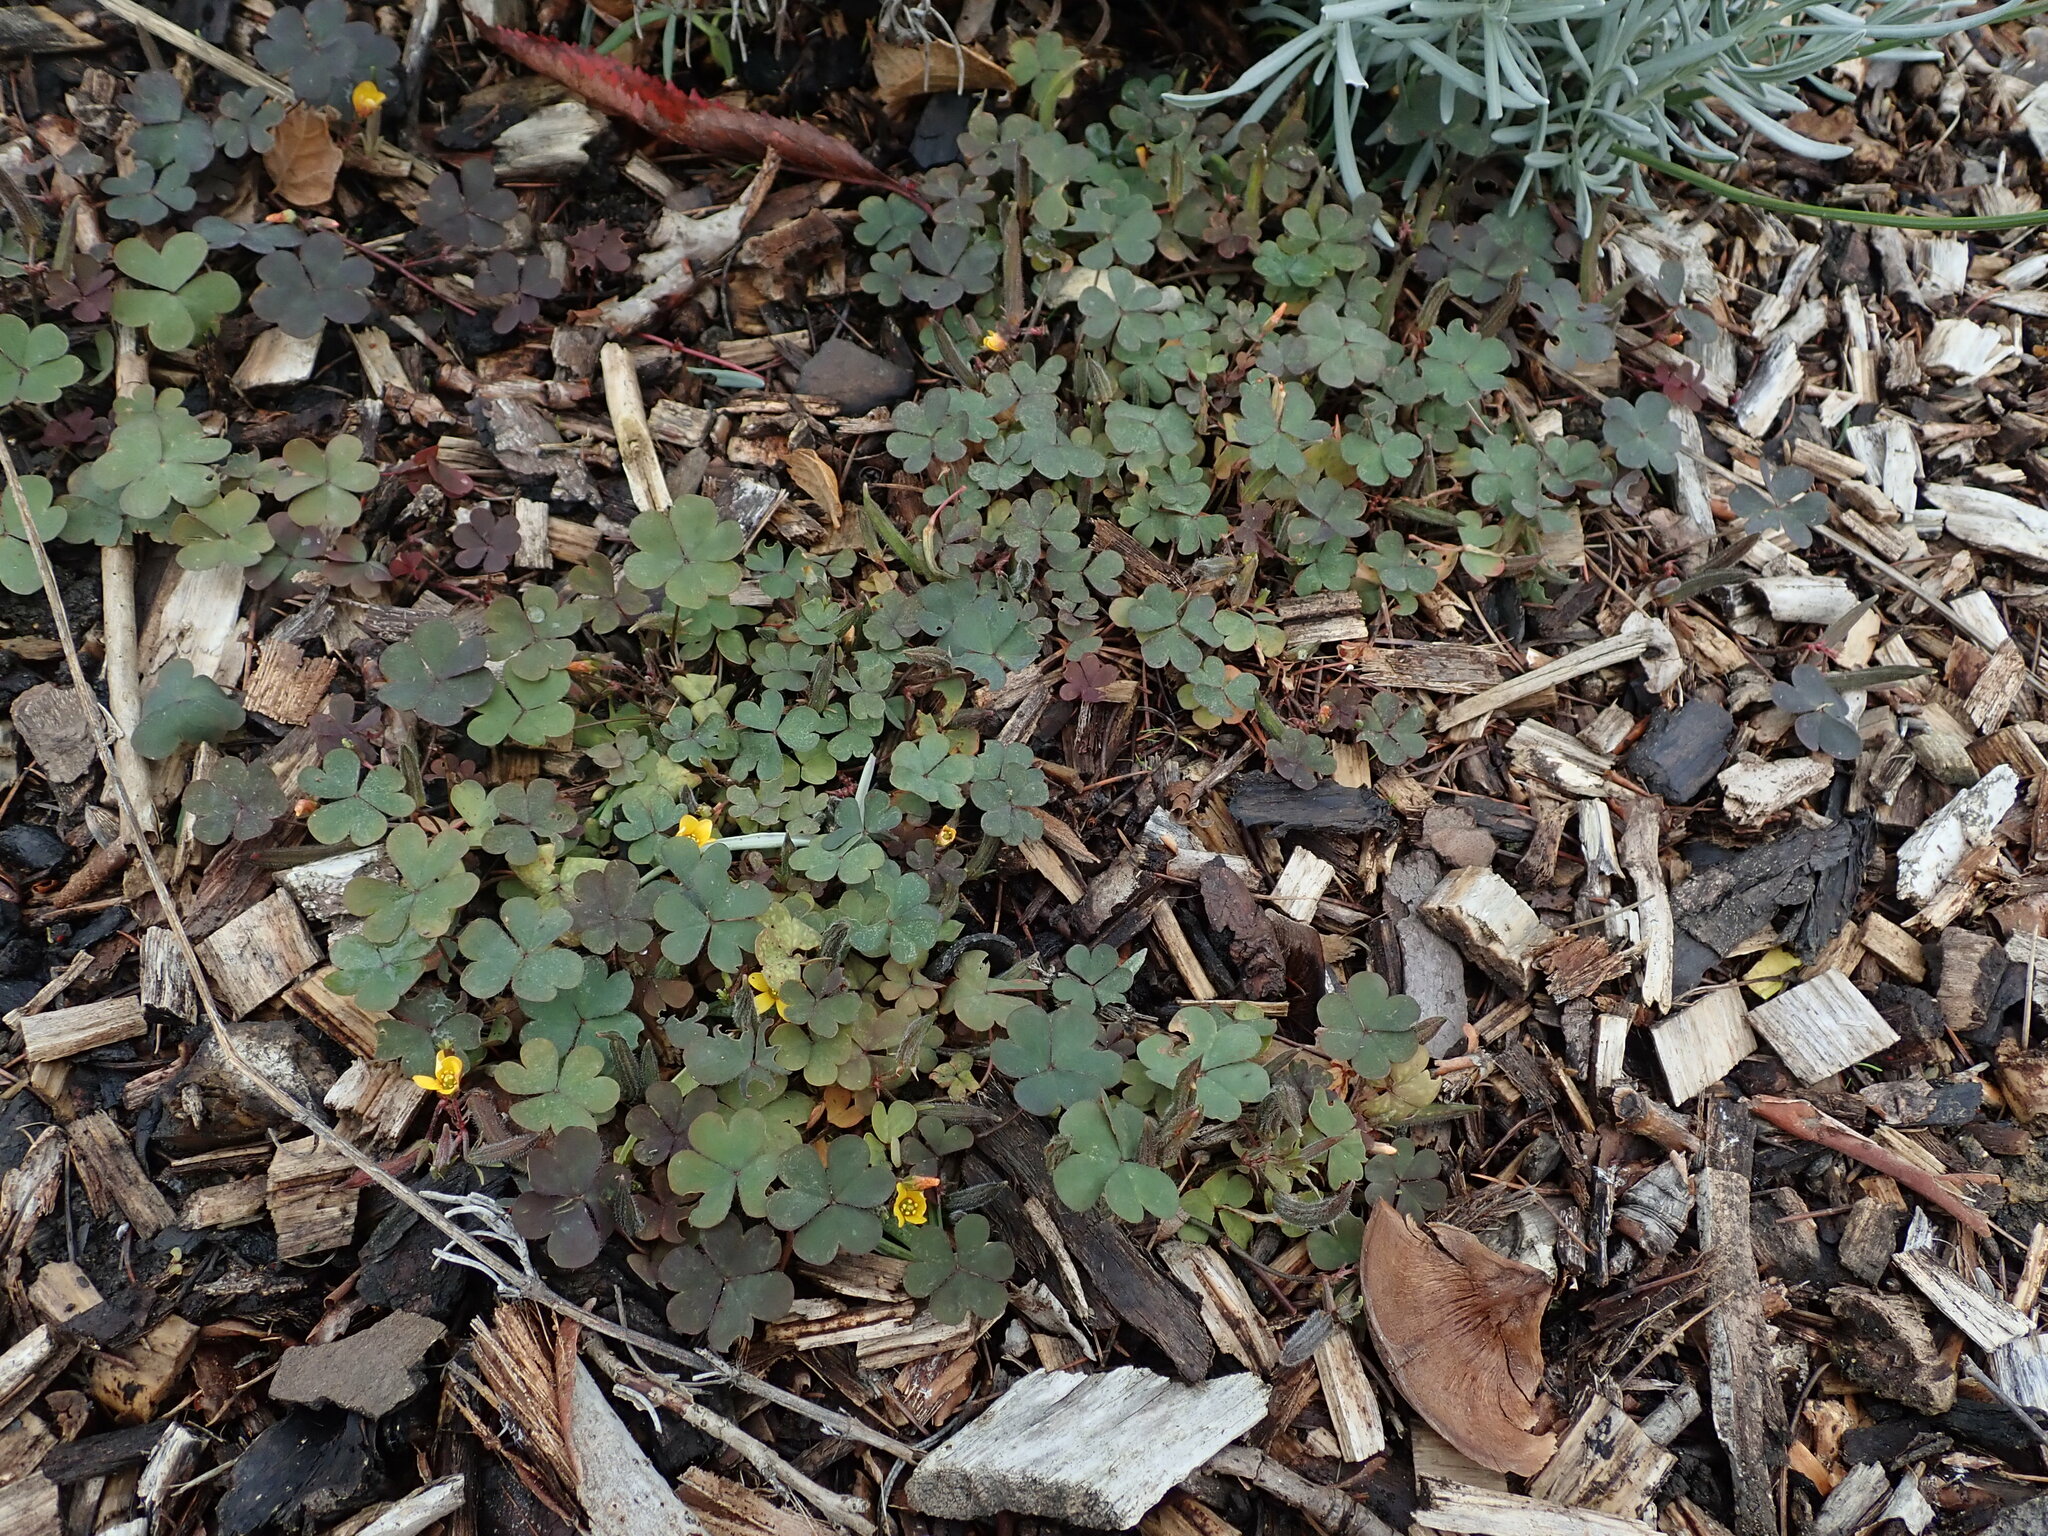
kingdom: Plantae
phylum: Tracheophyta
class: Magnoliopsida
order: Oxalidales
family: Oxalidaceae
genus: Oxalis
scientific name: Oxalis corniculata
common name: Procumbent yellow-sorrel
